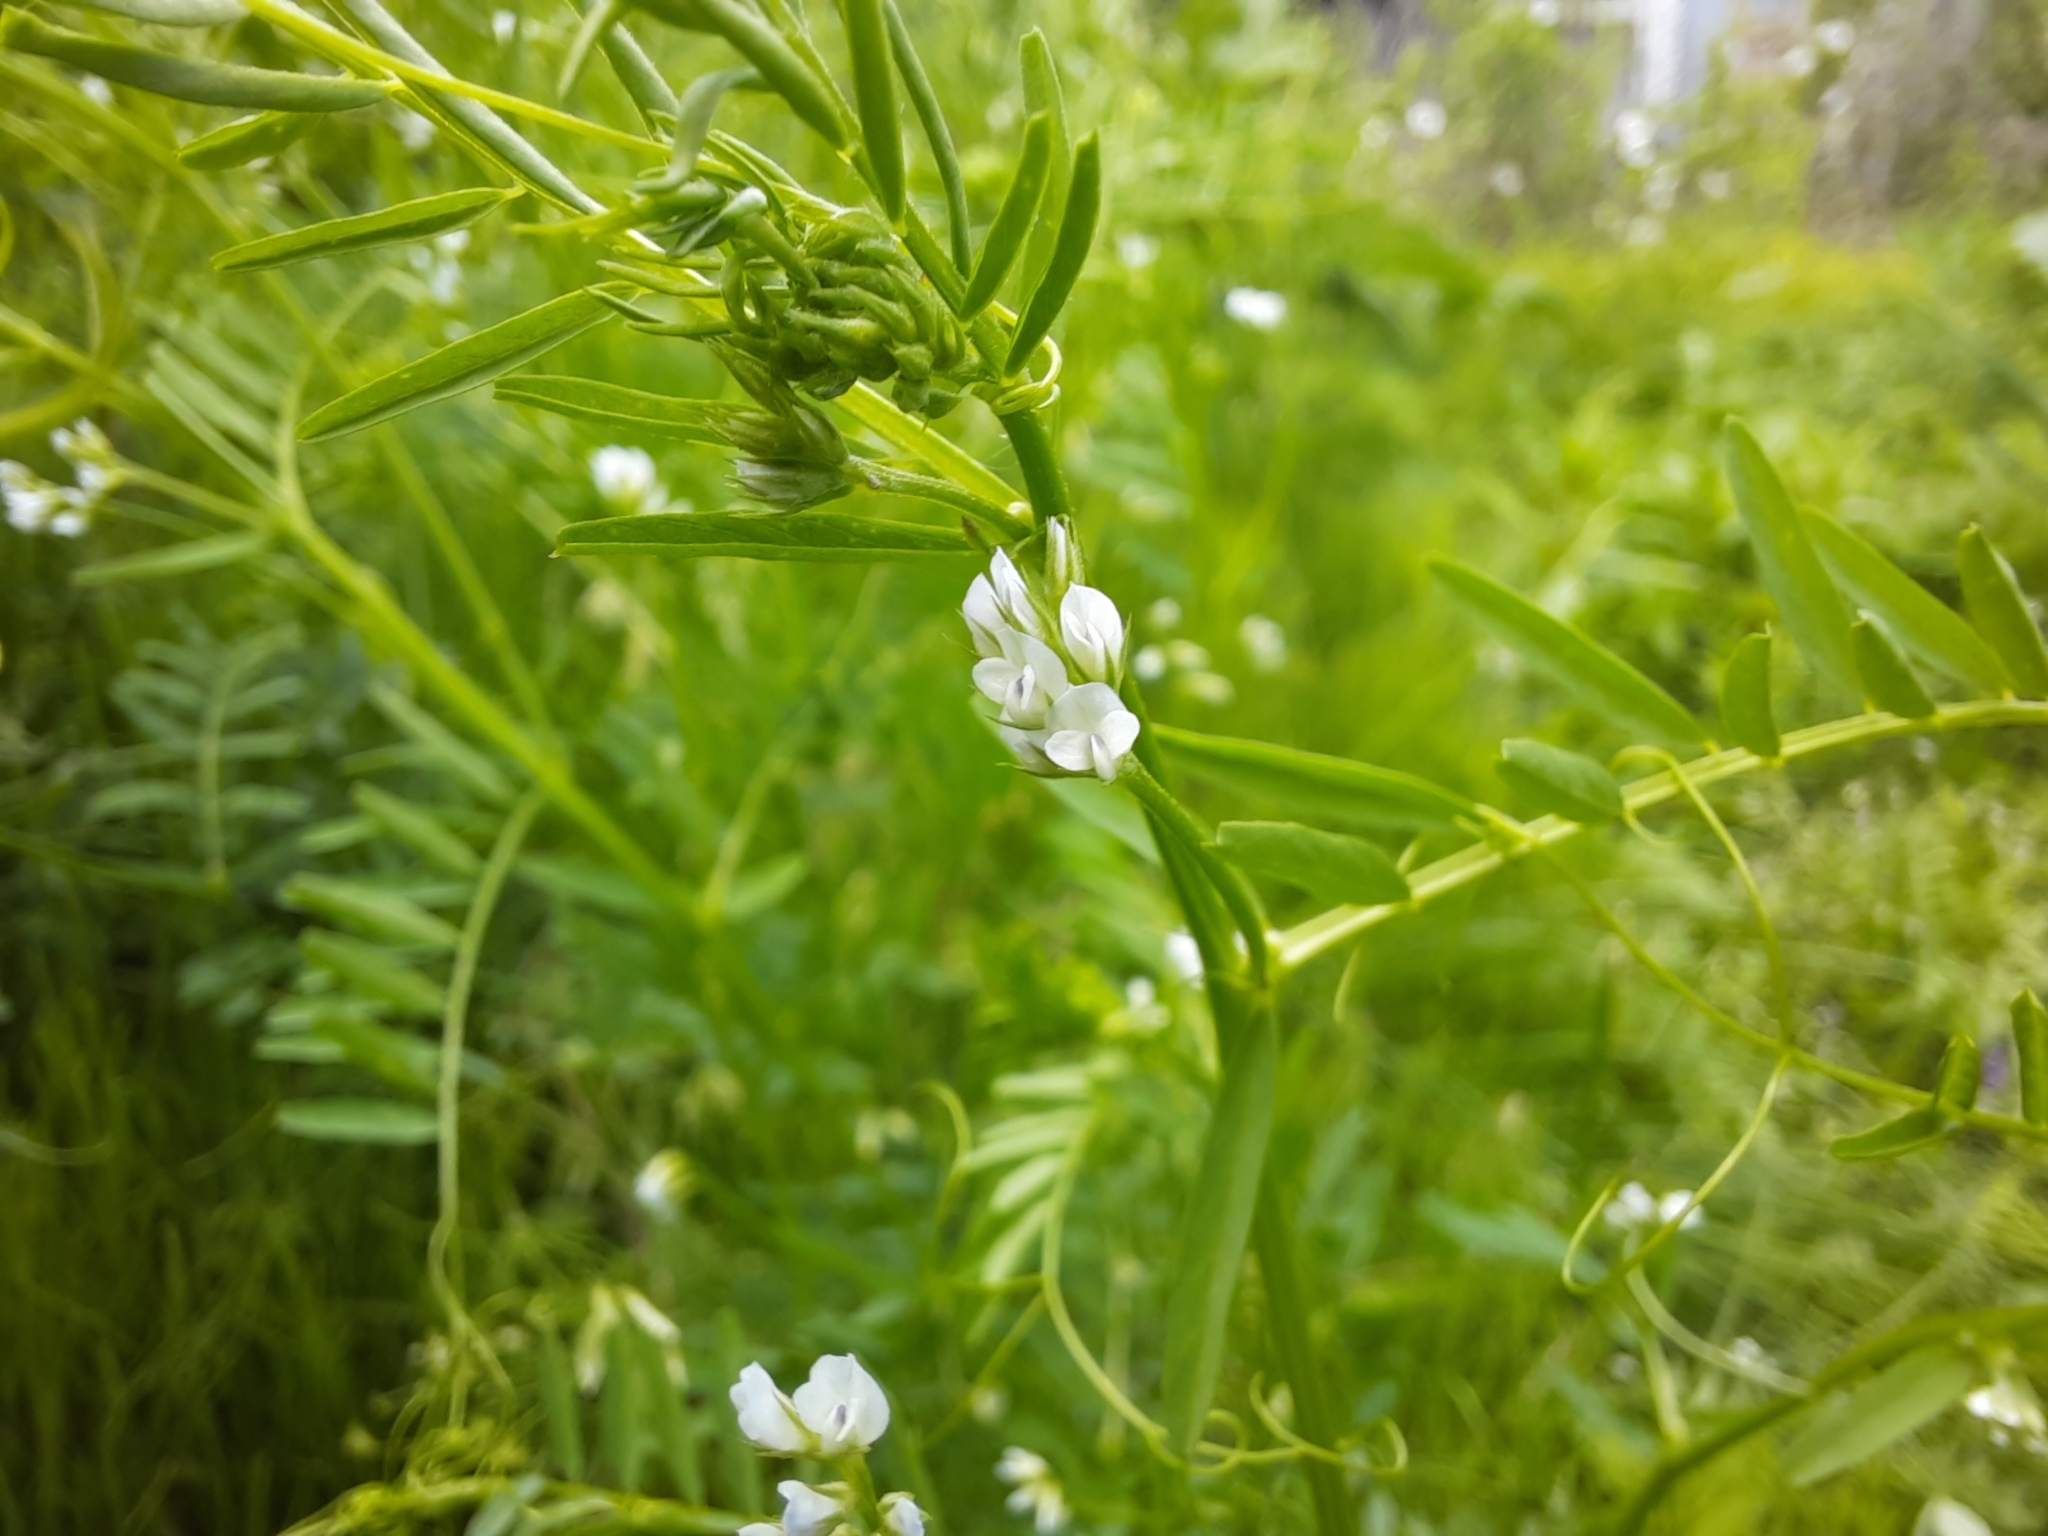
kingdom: Plantae
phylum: Tracheophyta
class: Magnoliopsida
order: Fabales
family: Fabaceae
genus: Vicia
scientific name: Vicia hirsuta
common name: Tiny vetch
